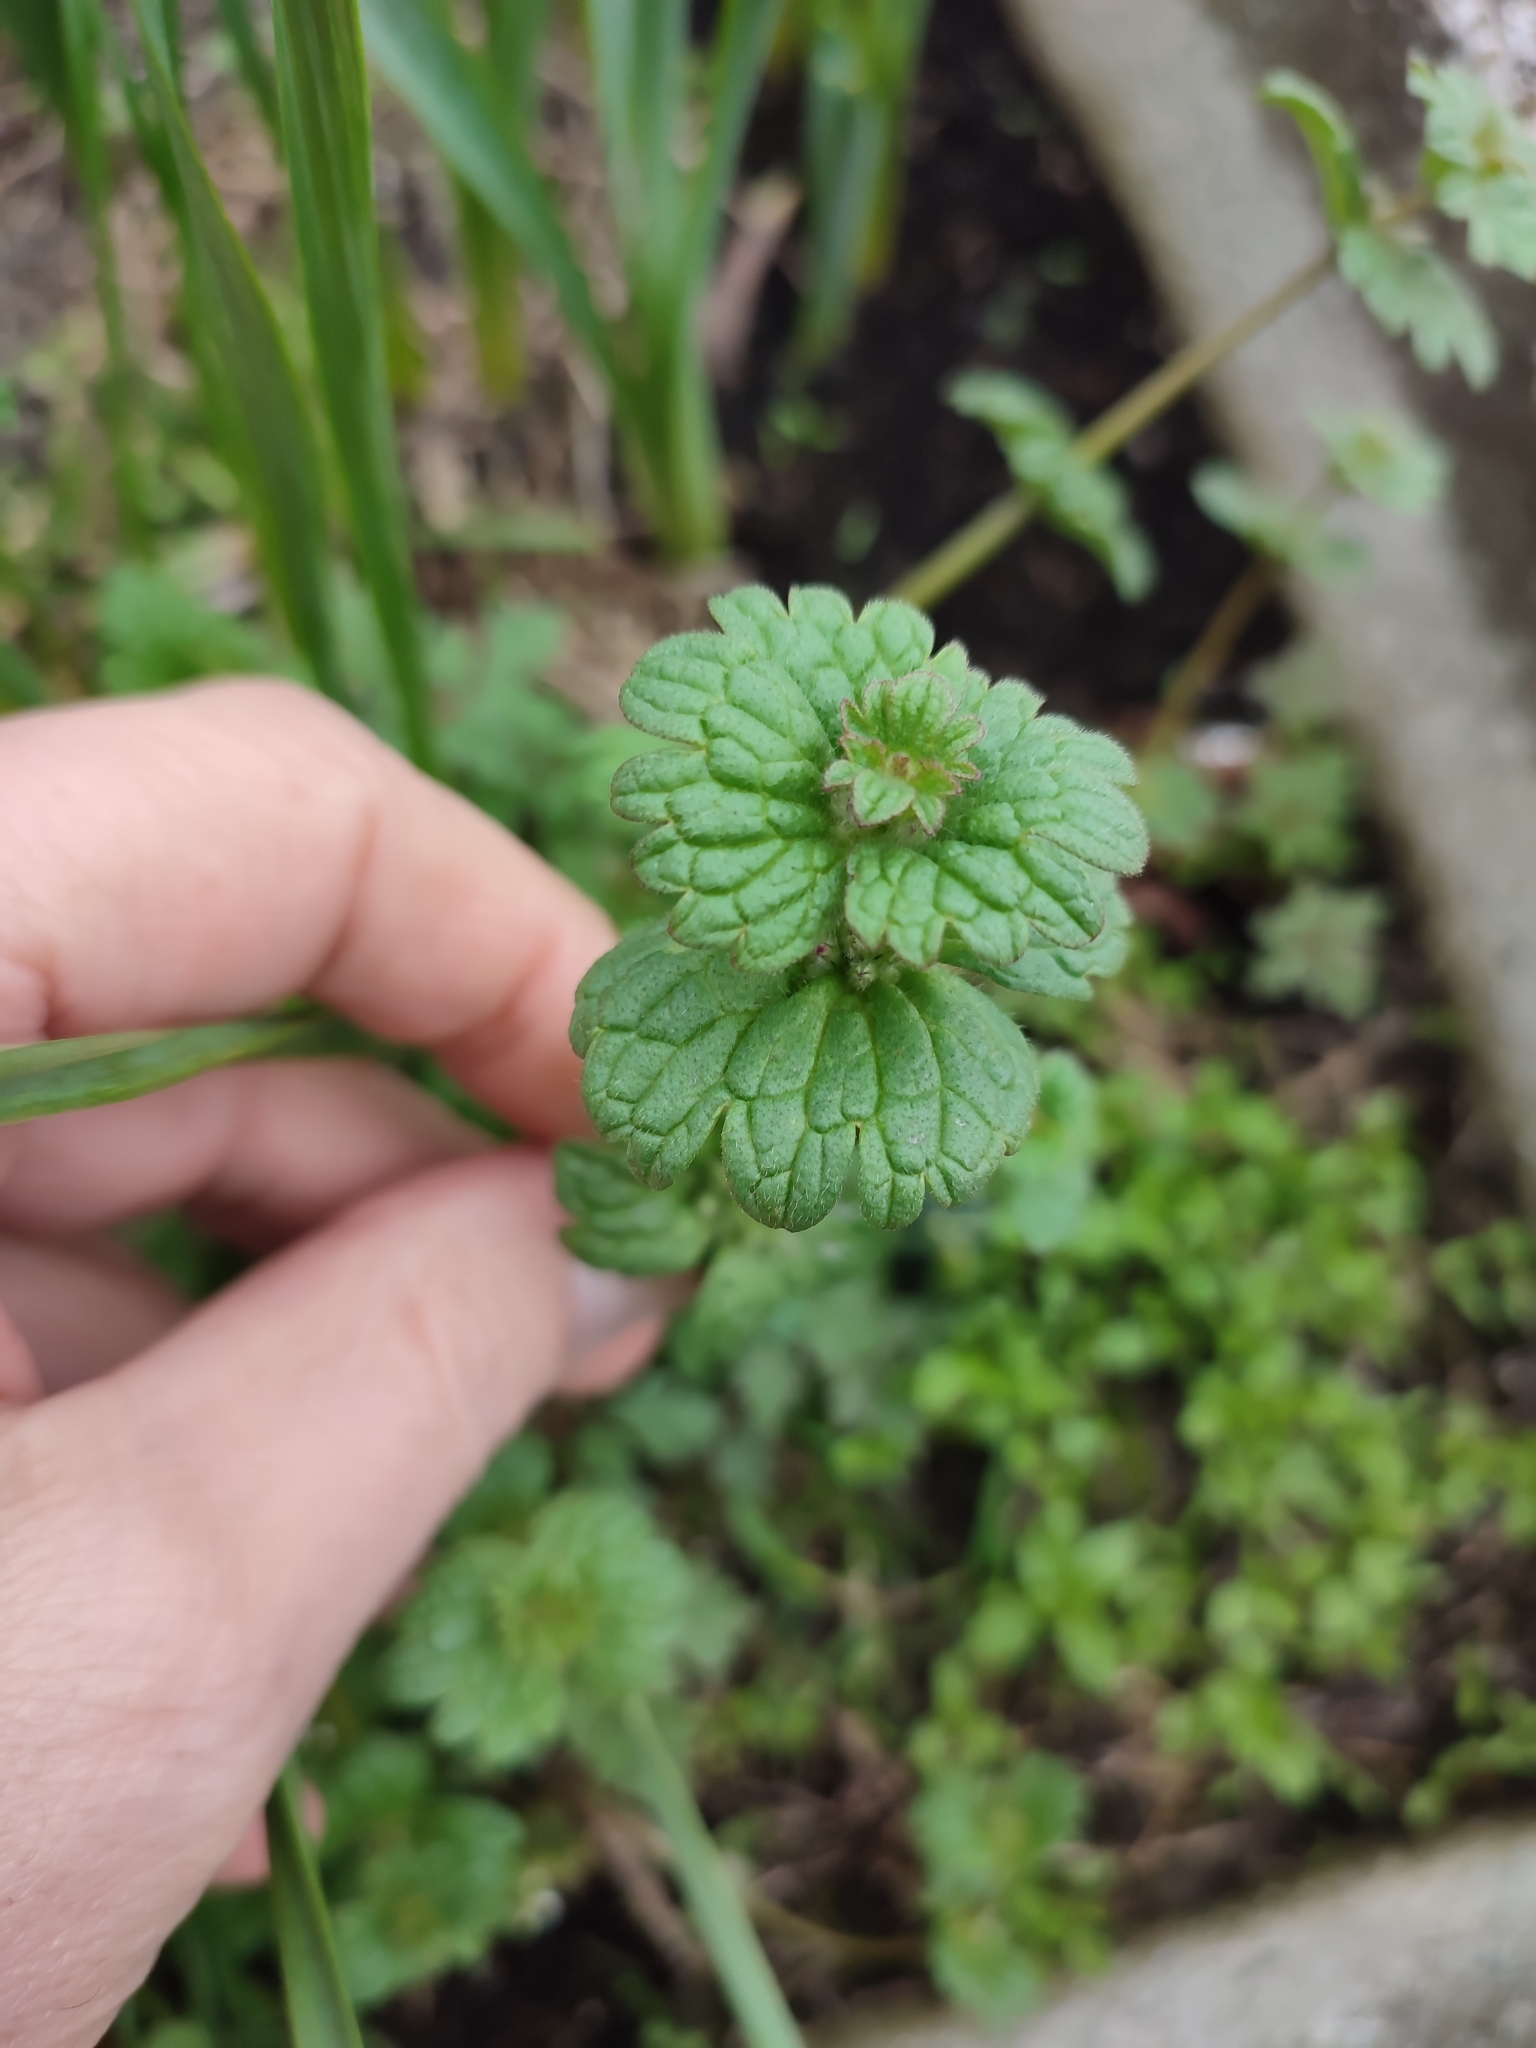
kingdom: Plantae
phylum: Tracheophyta
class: Magnoliopsida
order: Lamiales
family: Lamiaceae
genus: Lamium
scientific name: Lamium amplexicaule
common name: Henbit dead-nettle
